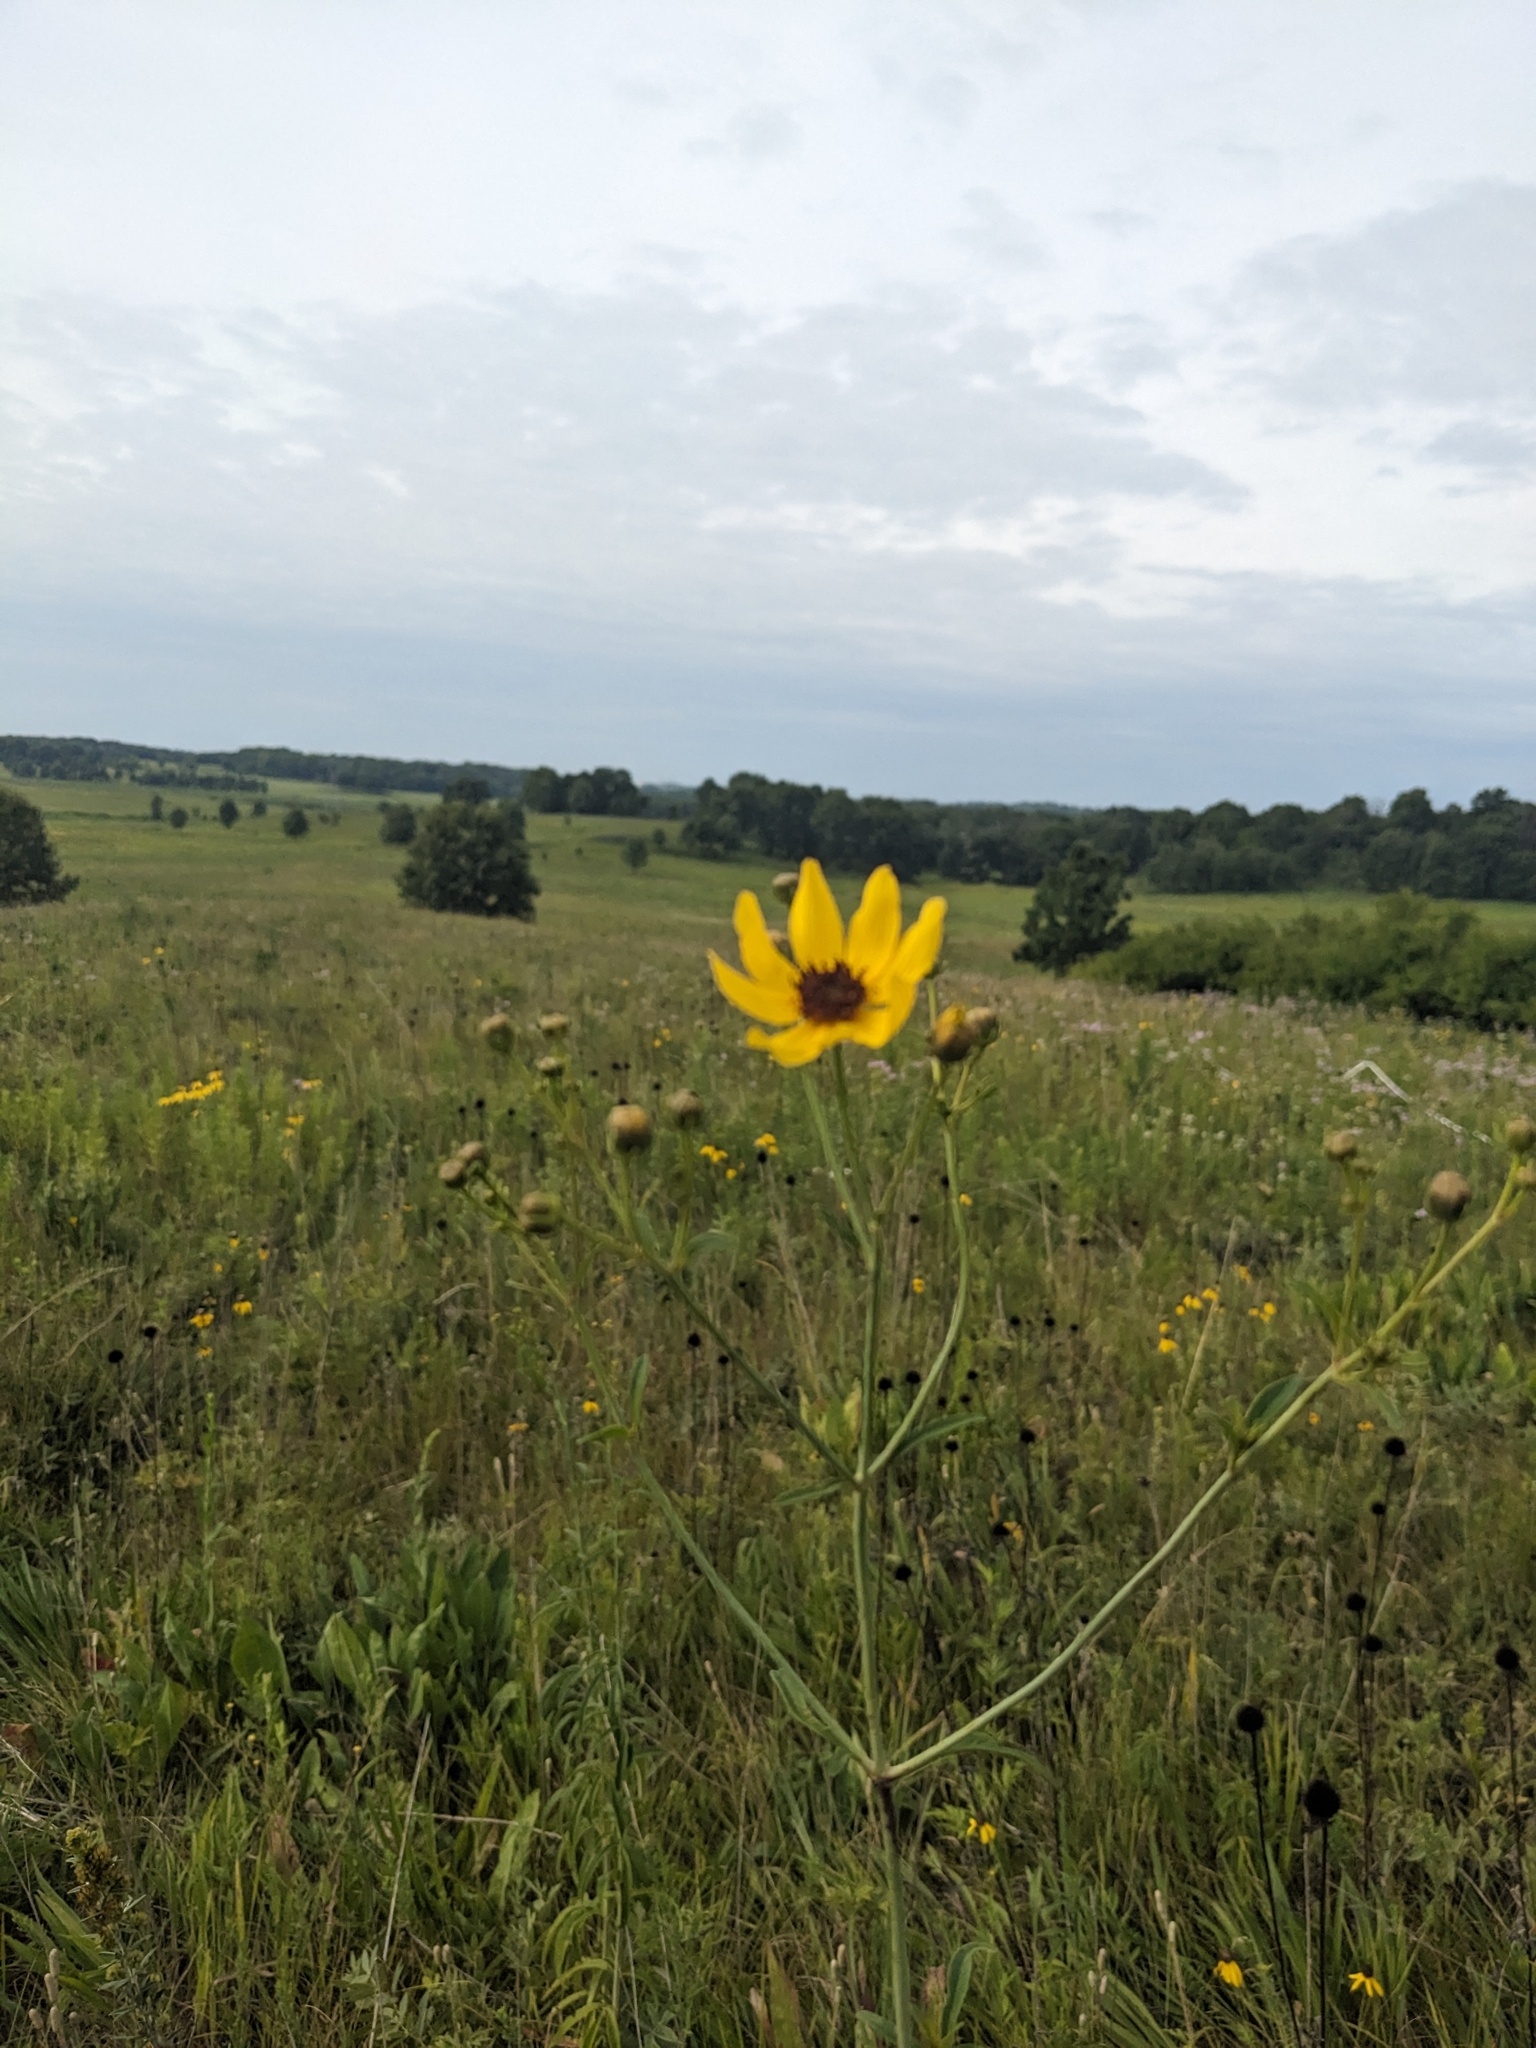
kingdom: Plantae
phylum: Tracheophyta
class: Magnoliopsida
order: Asterales
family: Asteraceae
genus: Coreopsis
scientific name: Coreopsis tripteris
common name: Tall coreopsis
